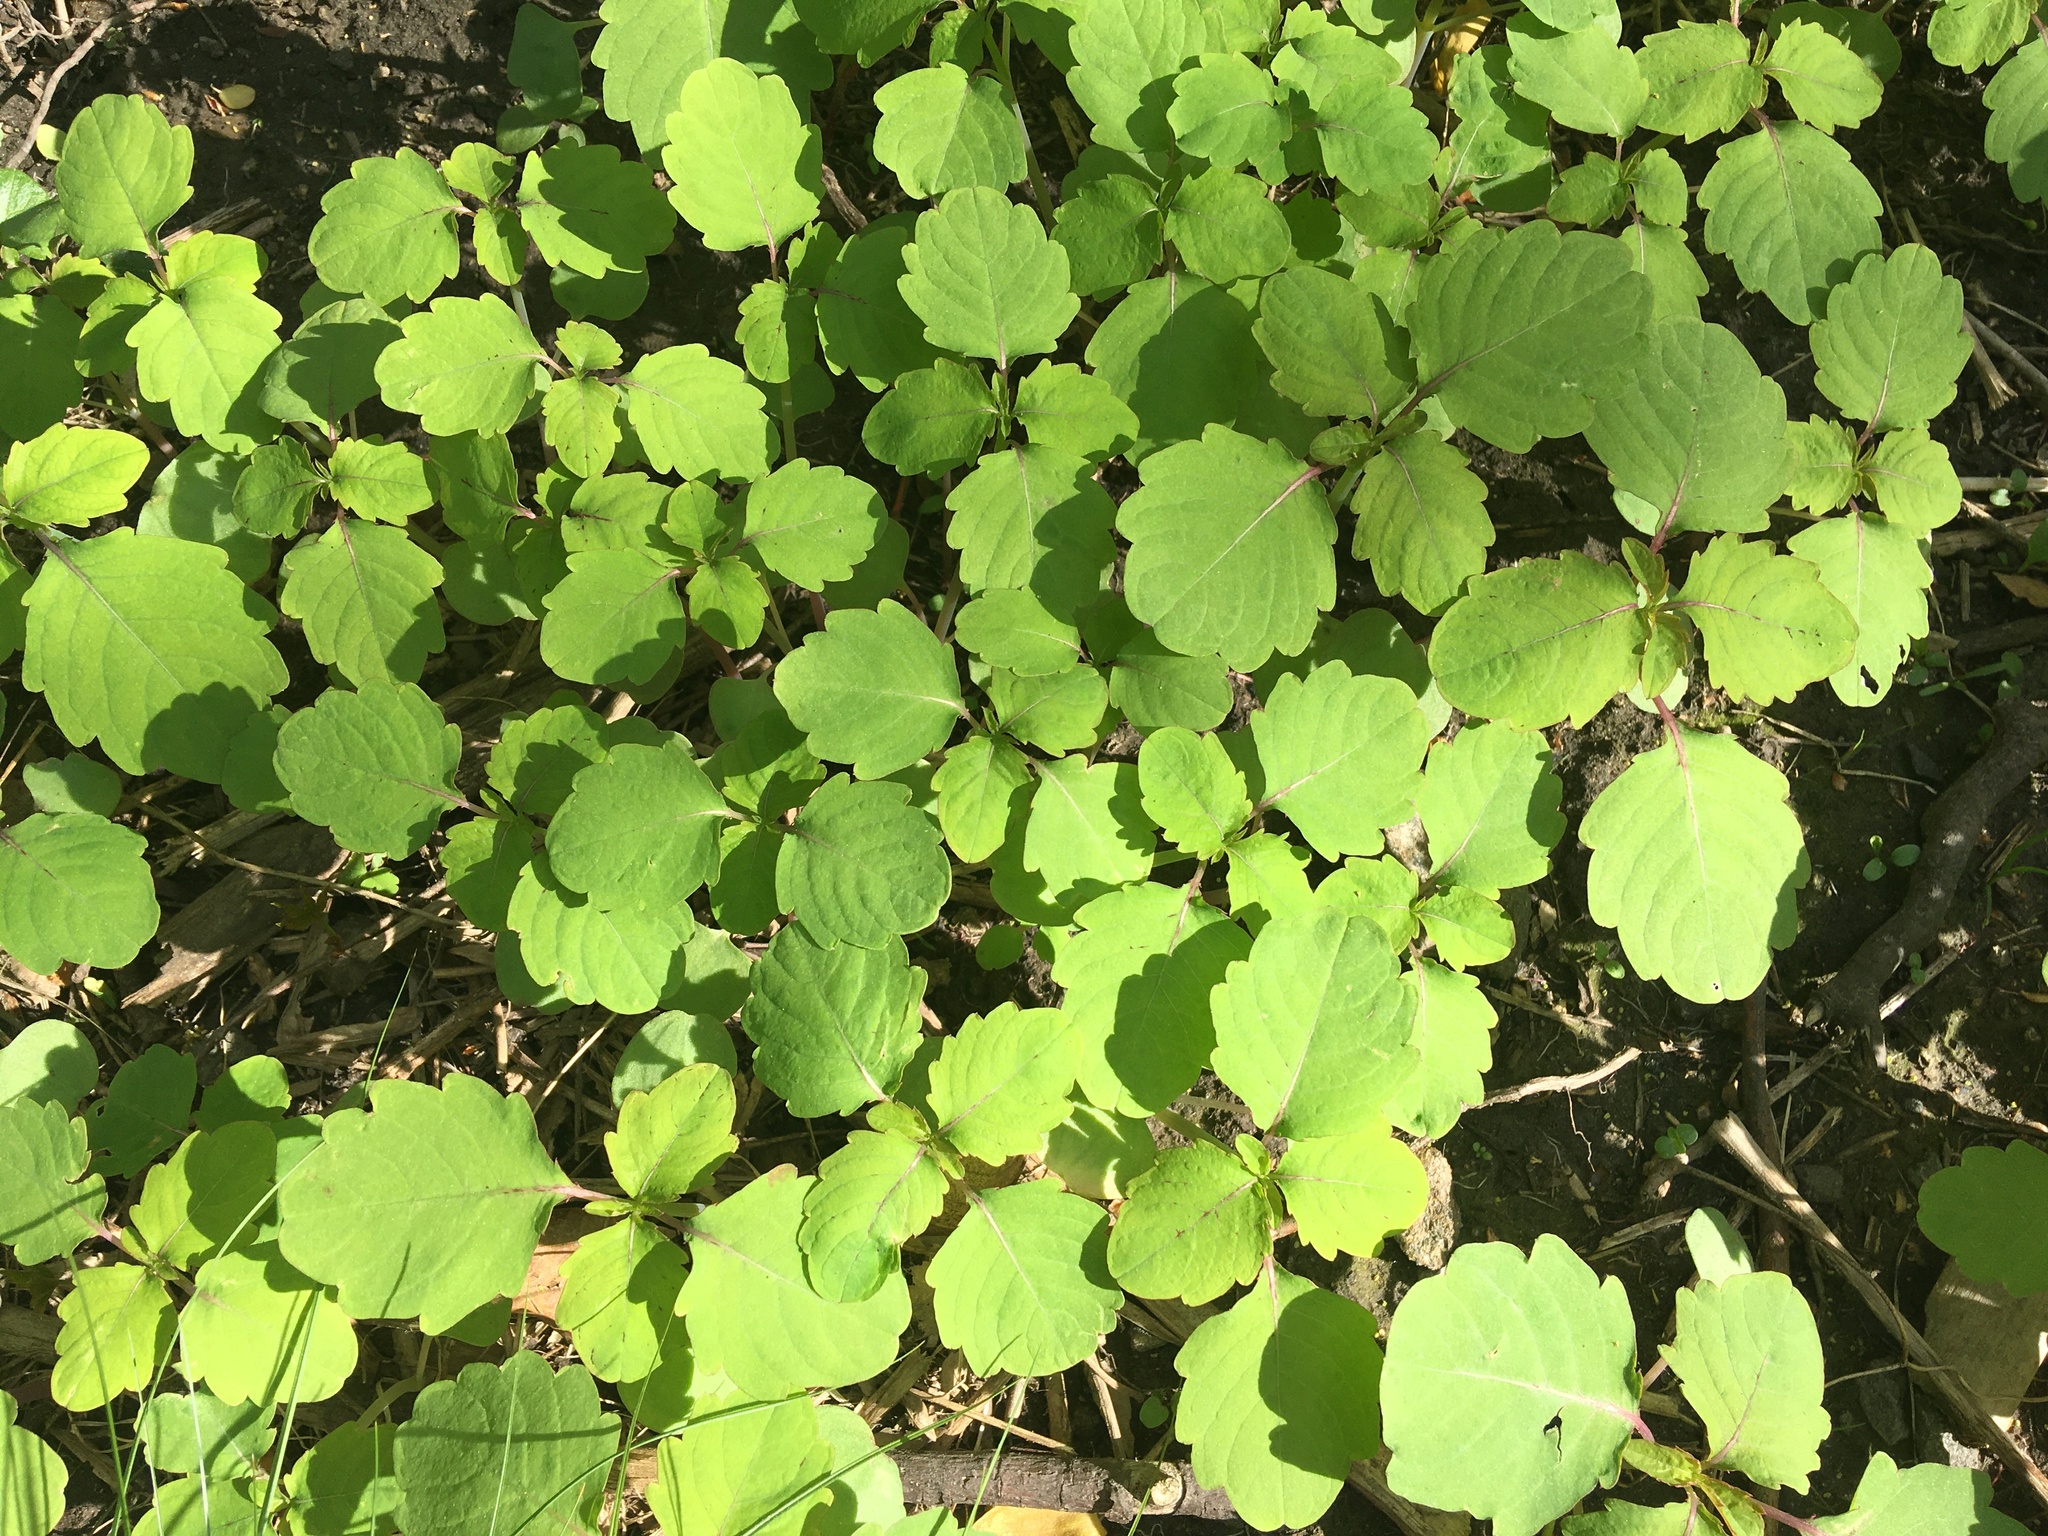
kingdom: Plantae
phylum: Tracheophyta
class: Magnoliopsida
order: Ericales
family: Balsaminaceae
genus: Impatiens
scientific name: Impatiens capensis
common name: Orange balsam
